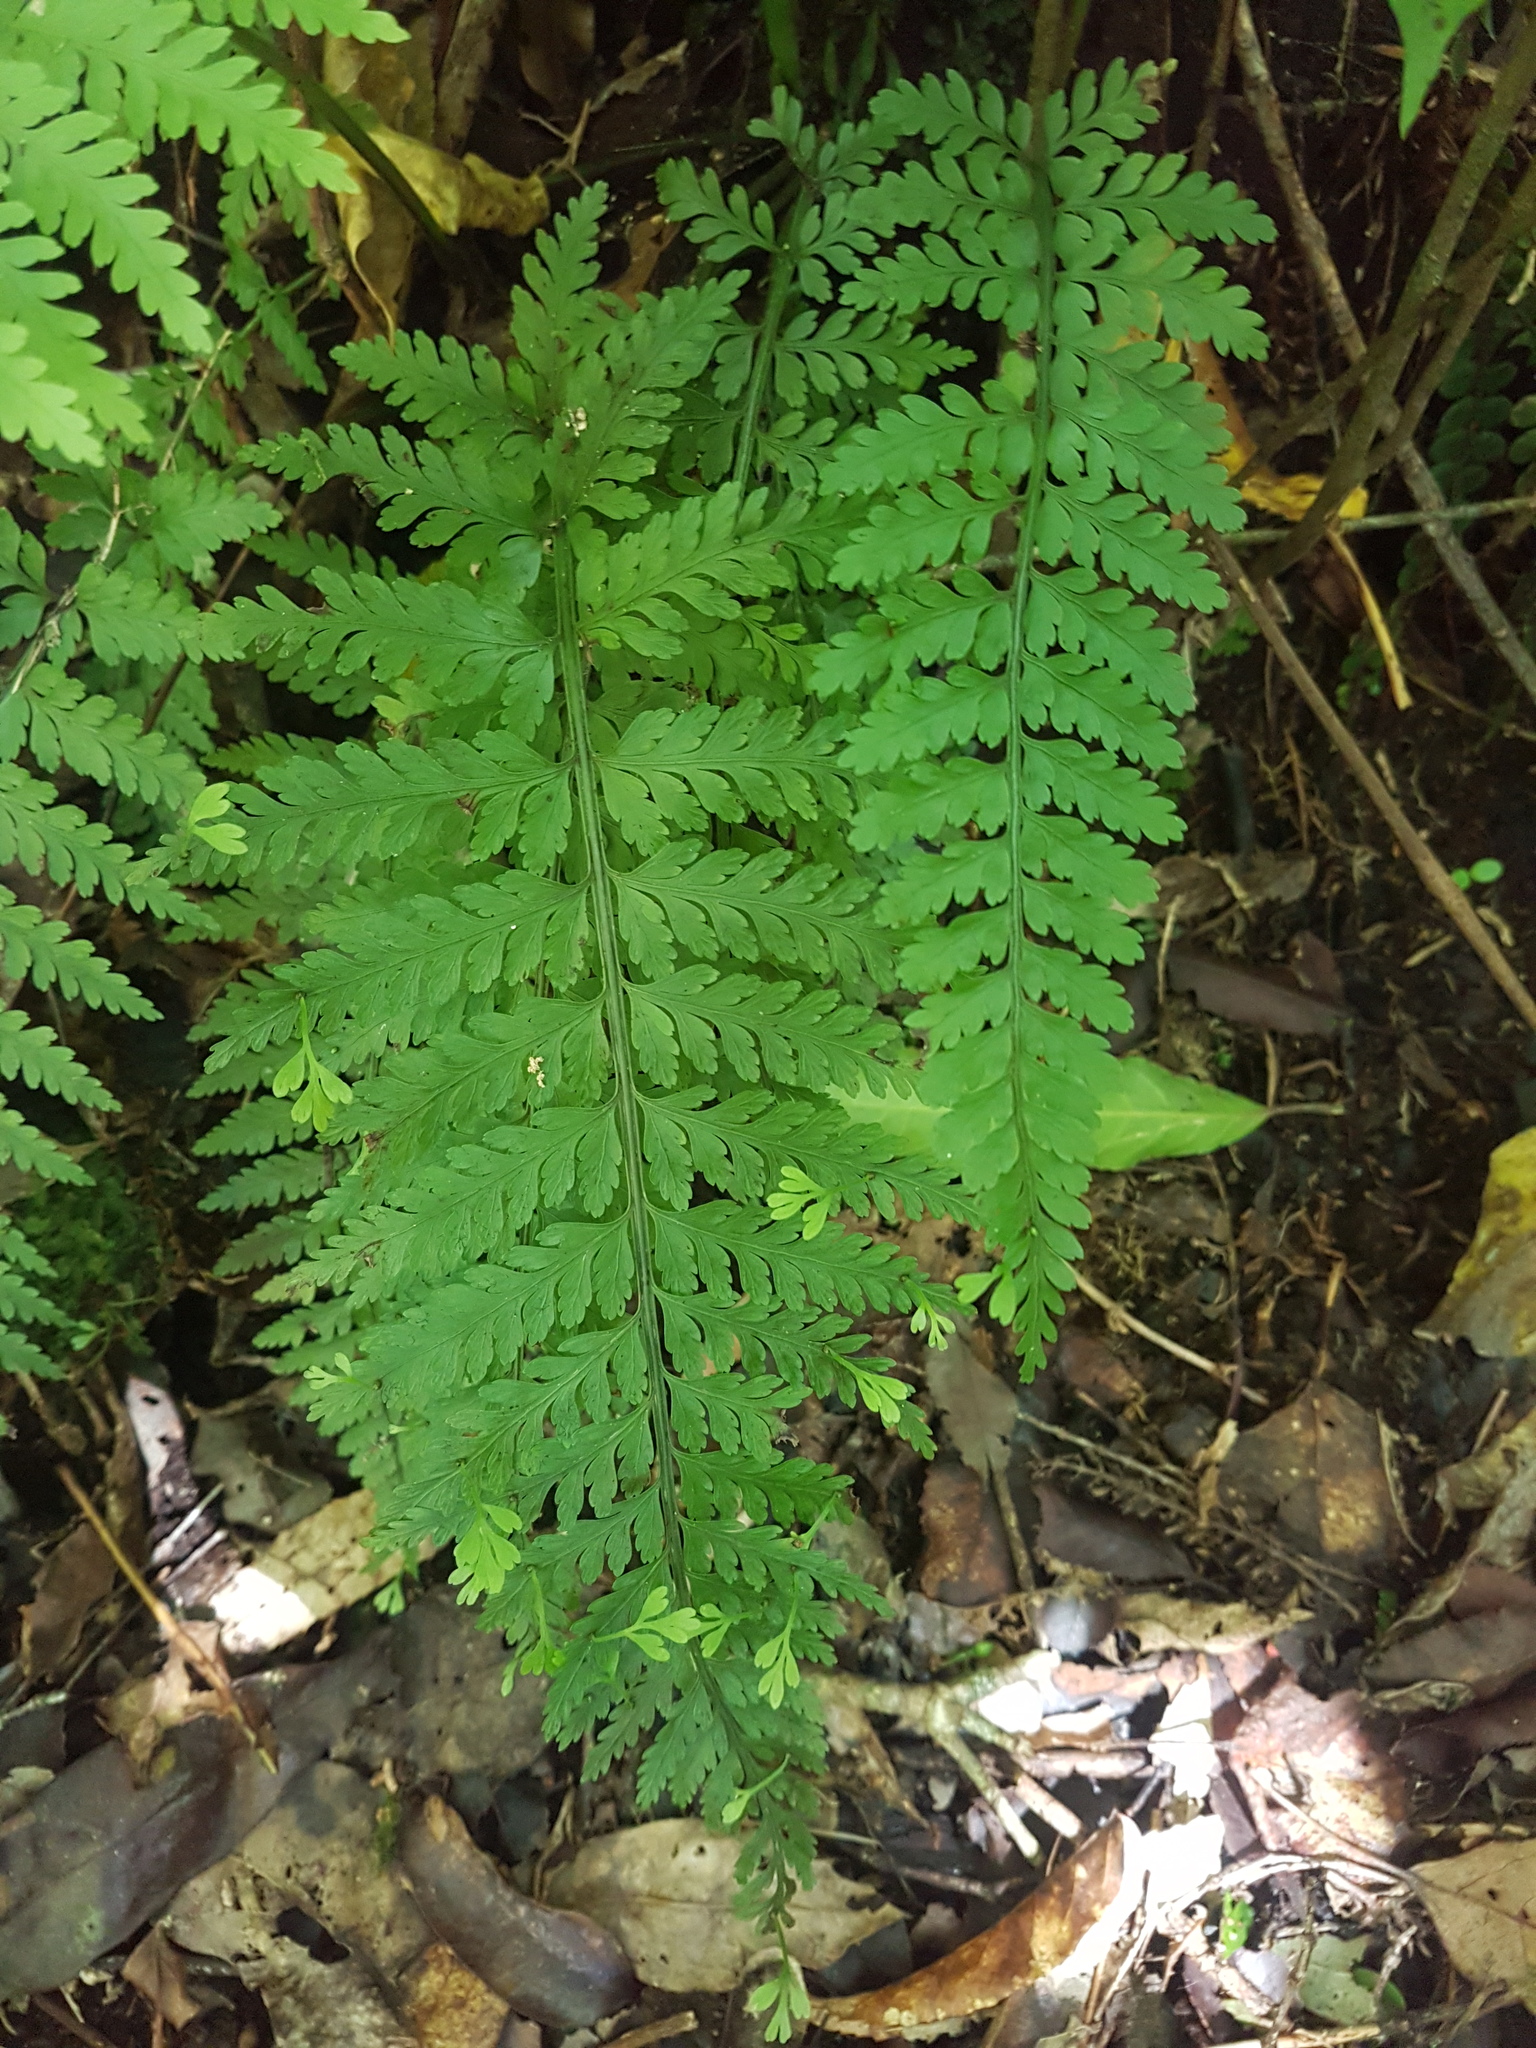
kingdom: Plantae
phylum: Tracheophyta
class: Polypodiopsida
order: Polypodiales
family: Aspleniaceae
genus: Asplenium
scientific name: Asplenium bulbiferum
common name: Mother fern
